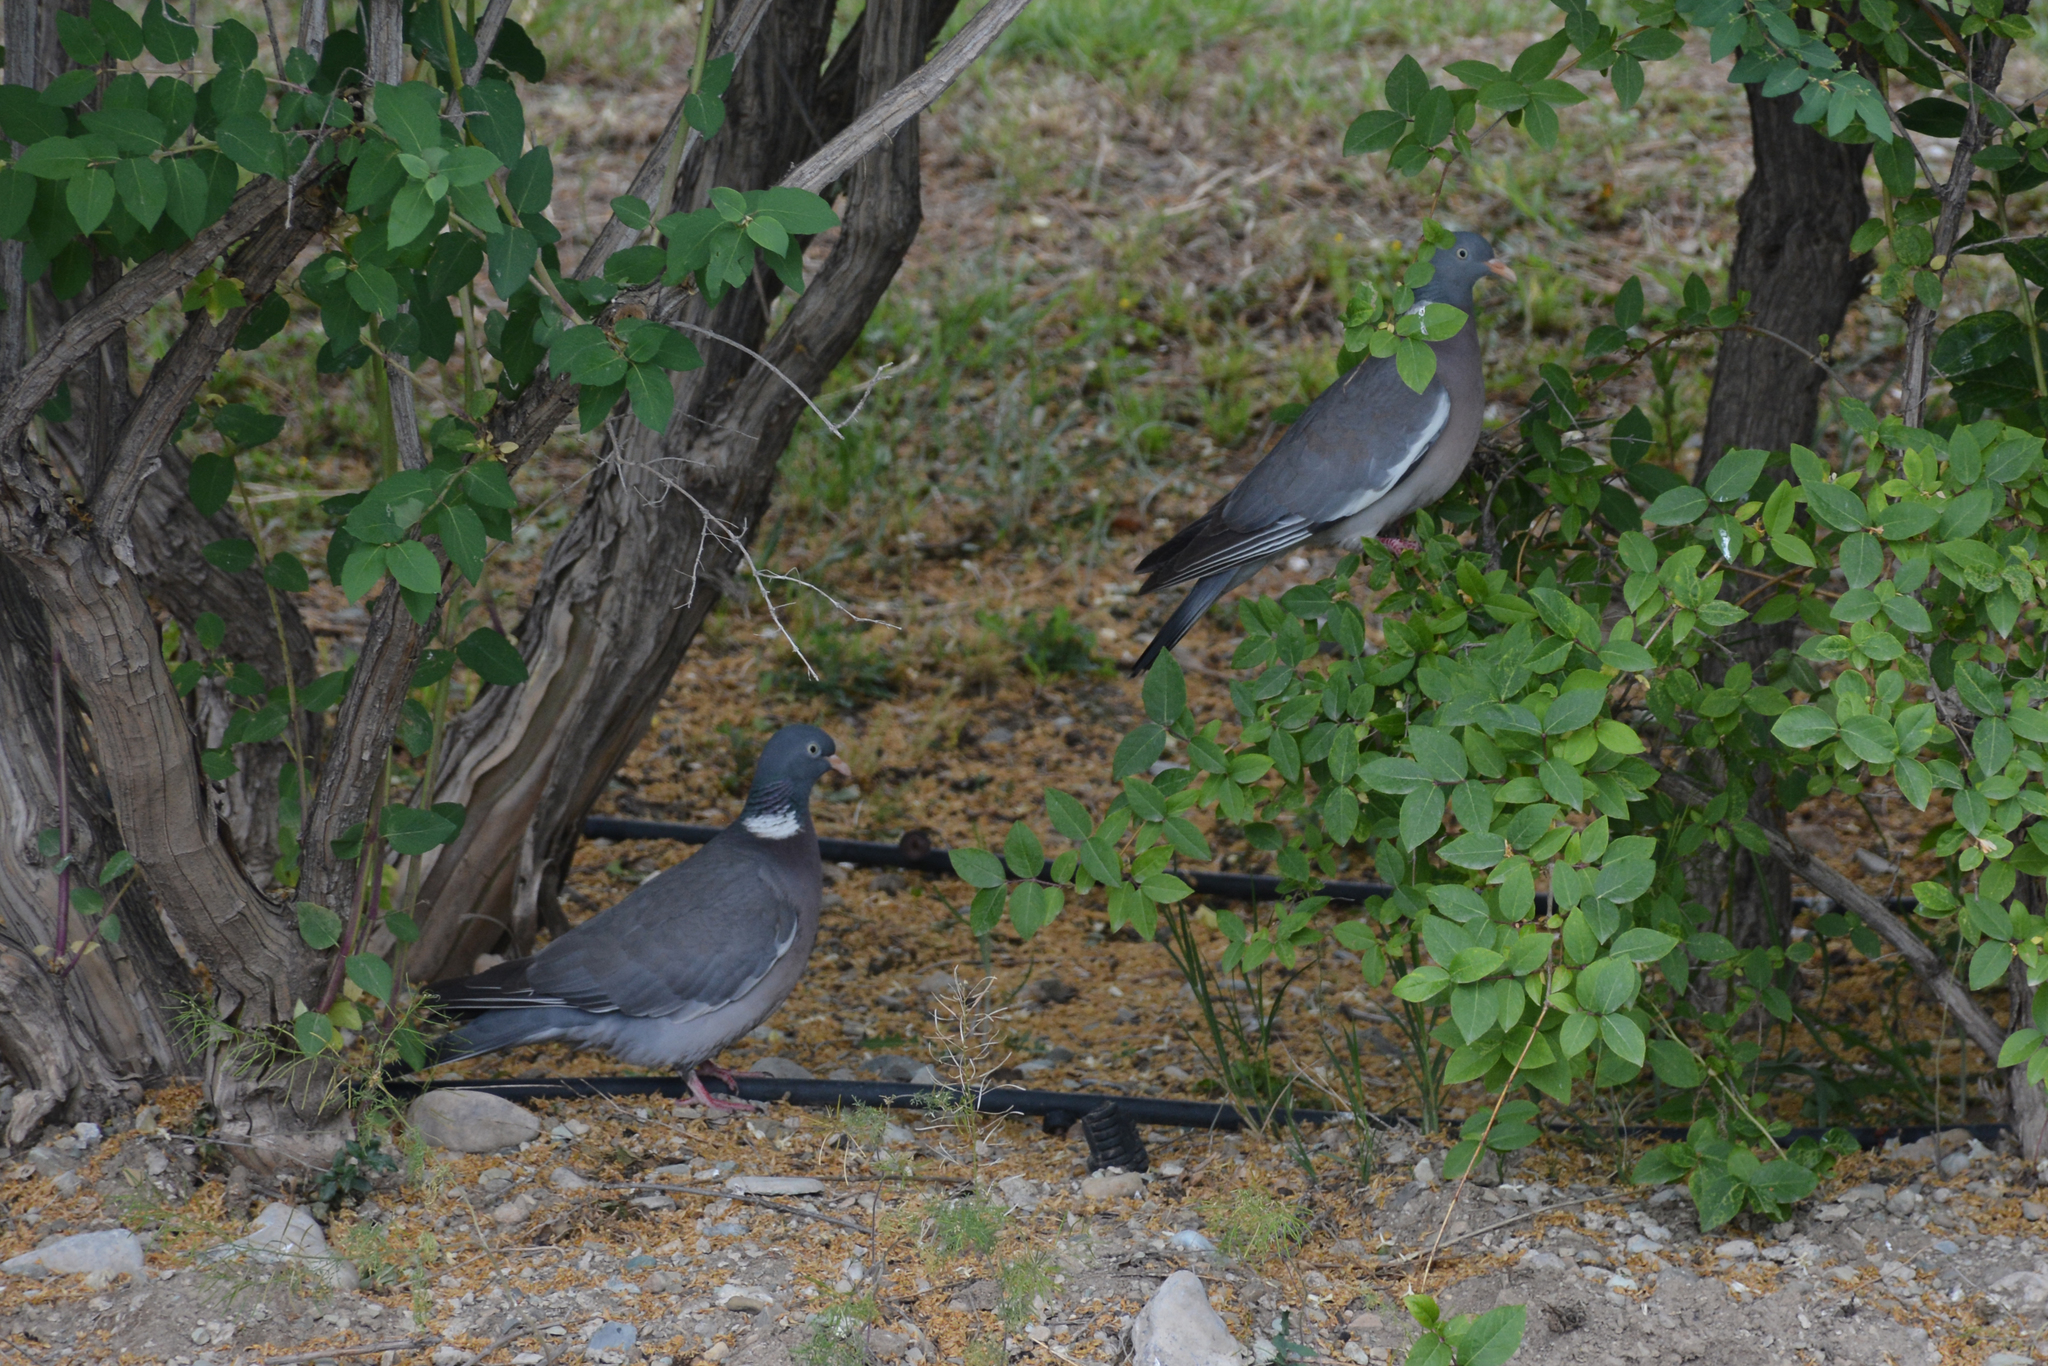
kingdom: Animalia
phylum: Chordata
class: Aves
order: Columbiformes
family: Columbidae
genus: Columba
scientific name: Columba palumbus
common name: Common wood pigeon
